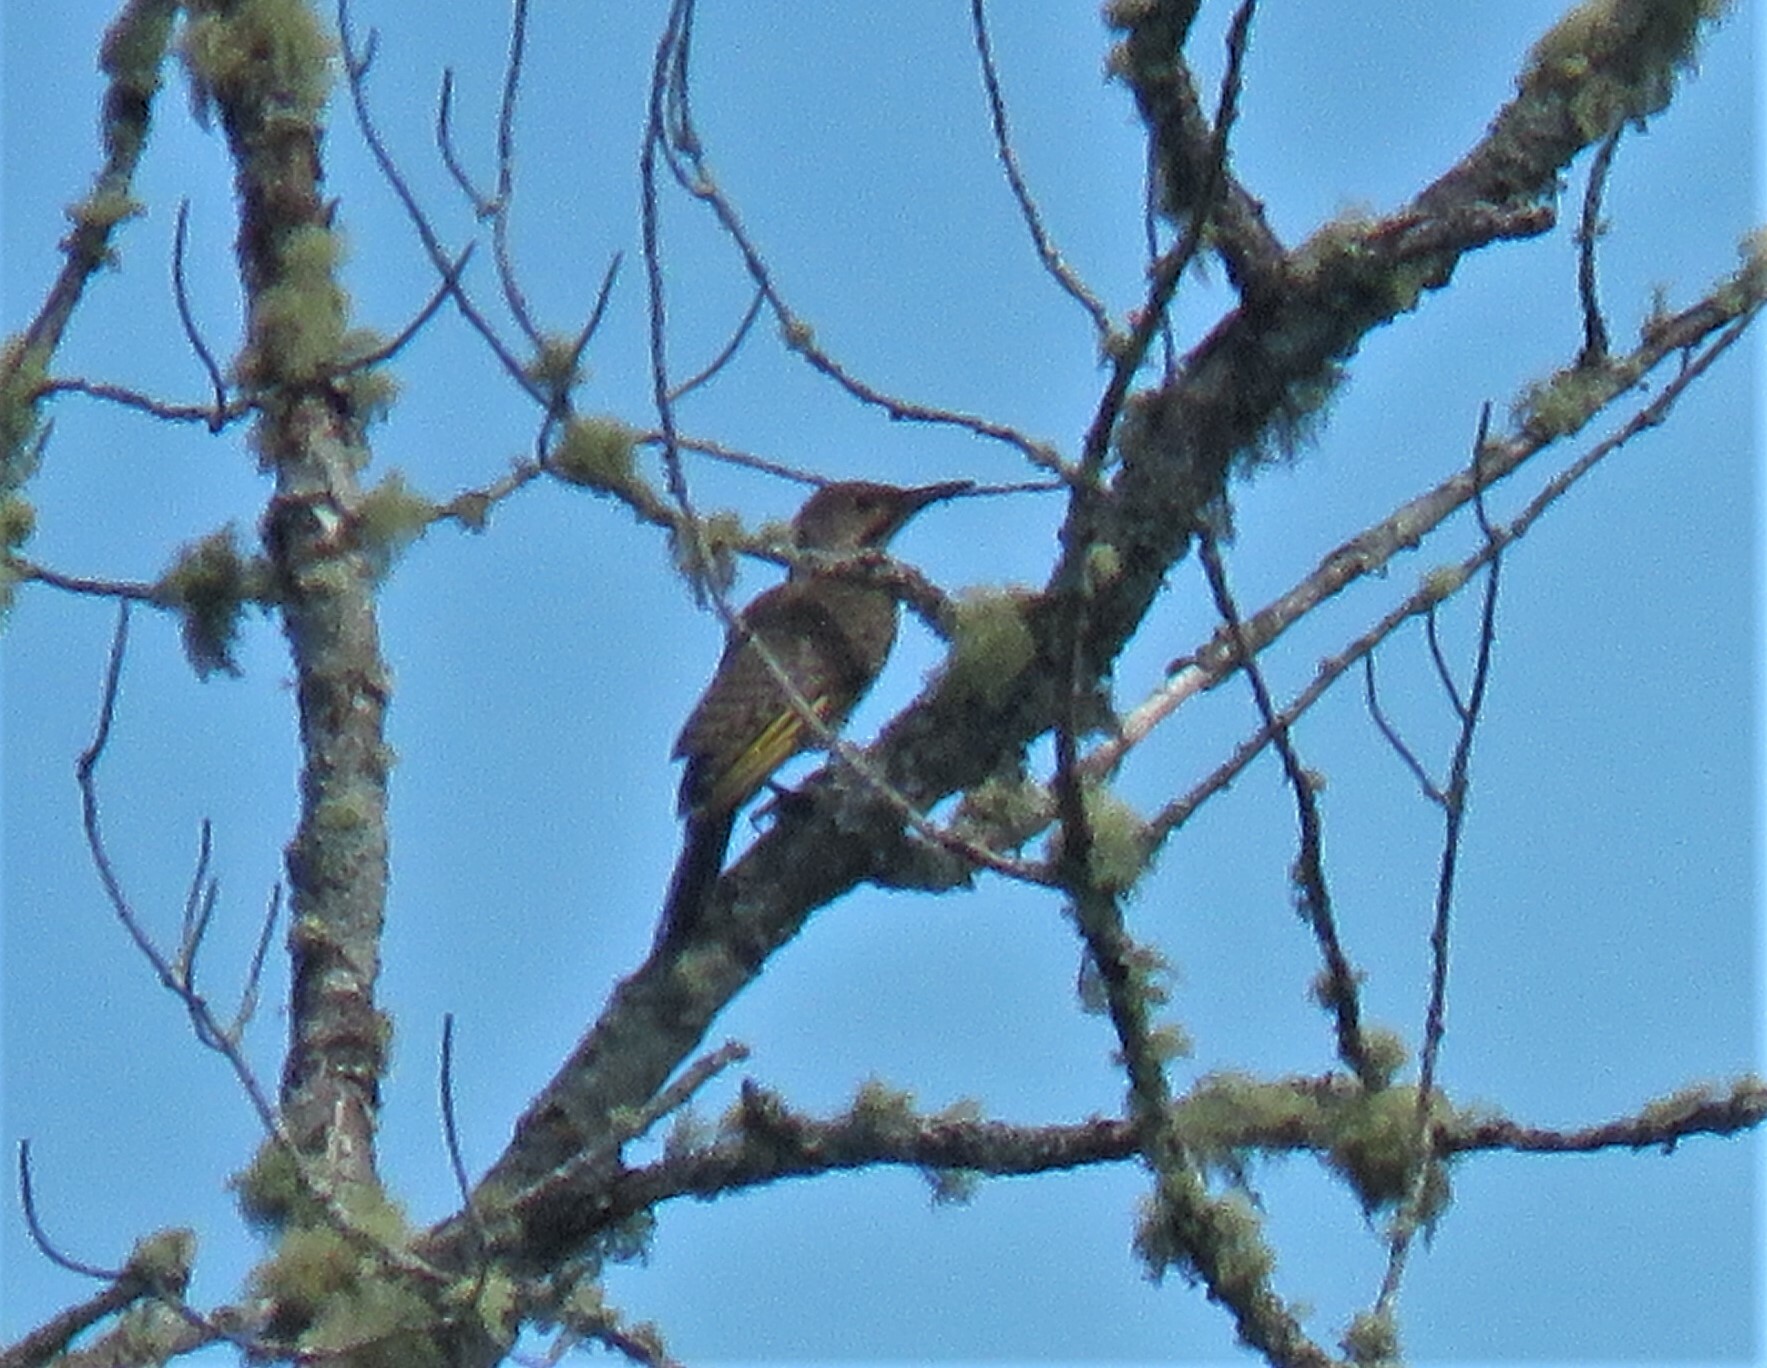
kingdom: Animalia
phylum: Chordata
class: Aves
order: Piciformes
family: Picidae
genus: Colaptes
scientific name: Colaptes auratus
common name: Northern flicker
